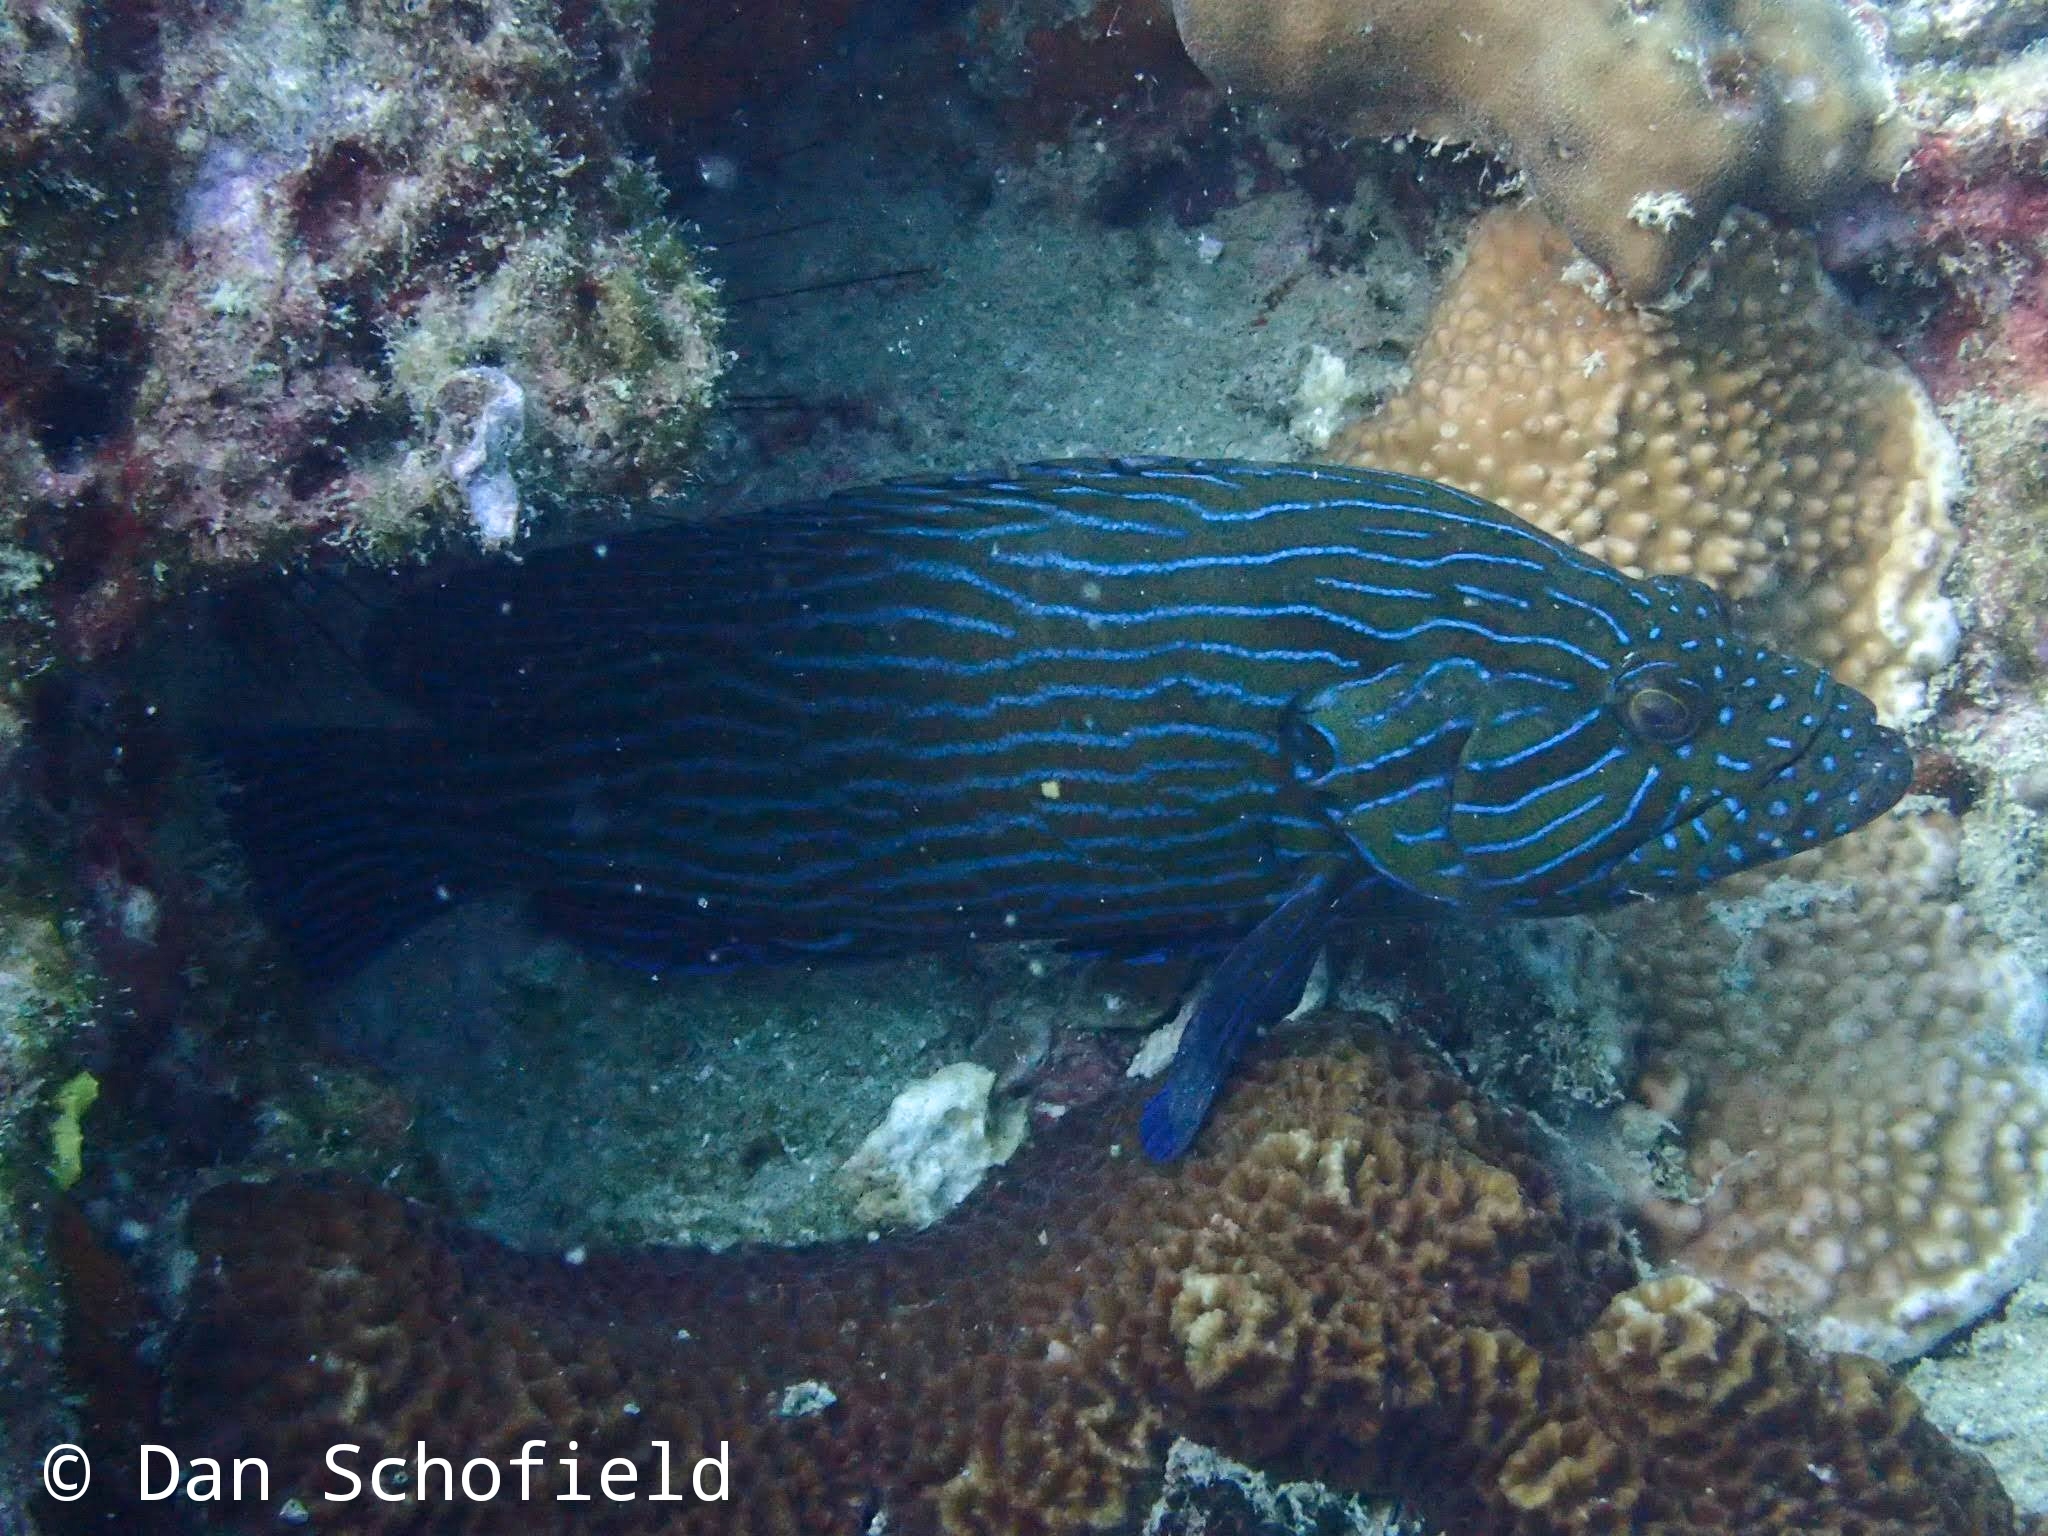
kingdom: Animalia
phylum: Chordata
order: Perciformes
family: Serranidae
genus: Cephalopholis
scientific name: Cephalopholis formosa
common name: Bluelined hind
